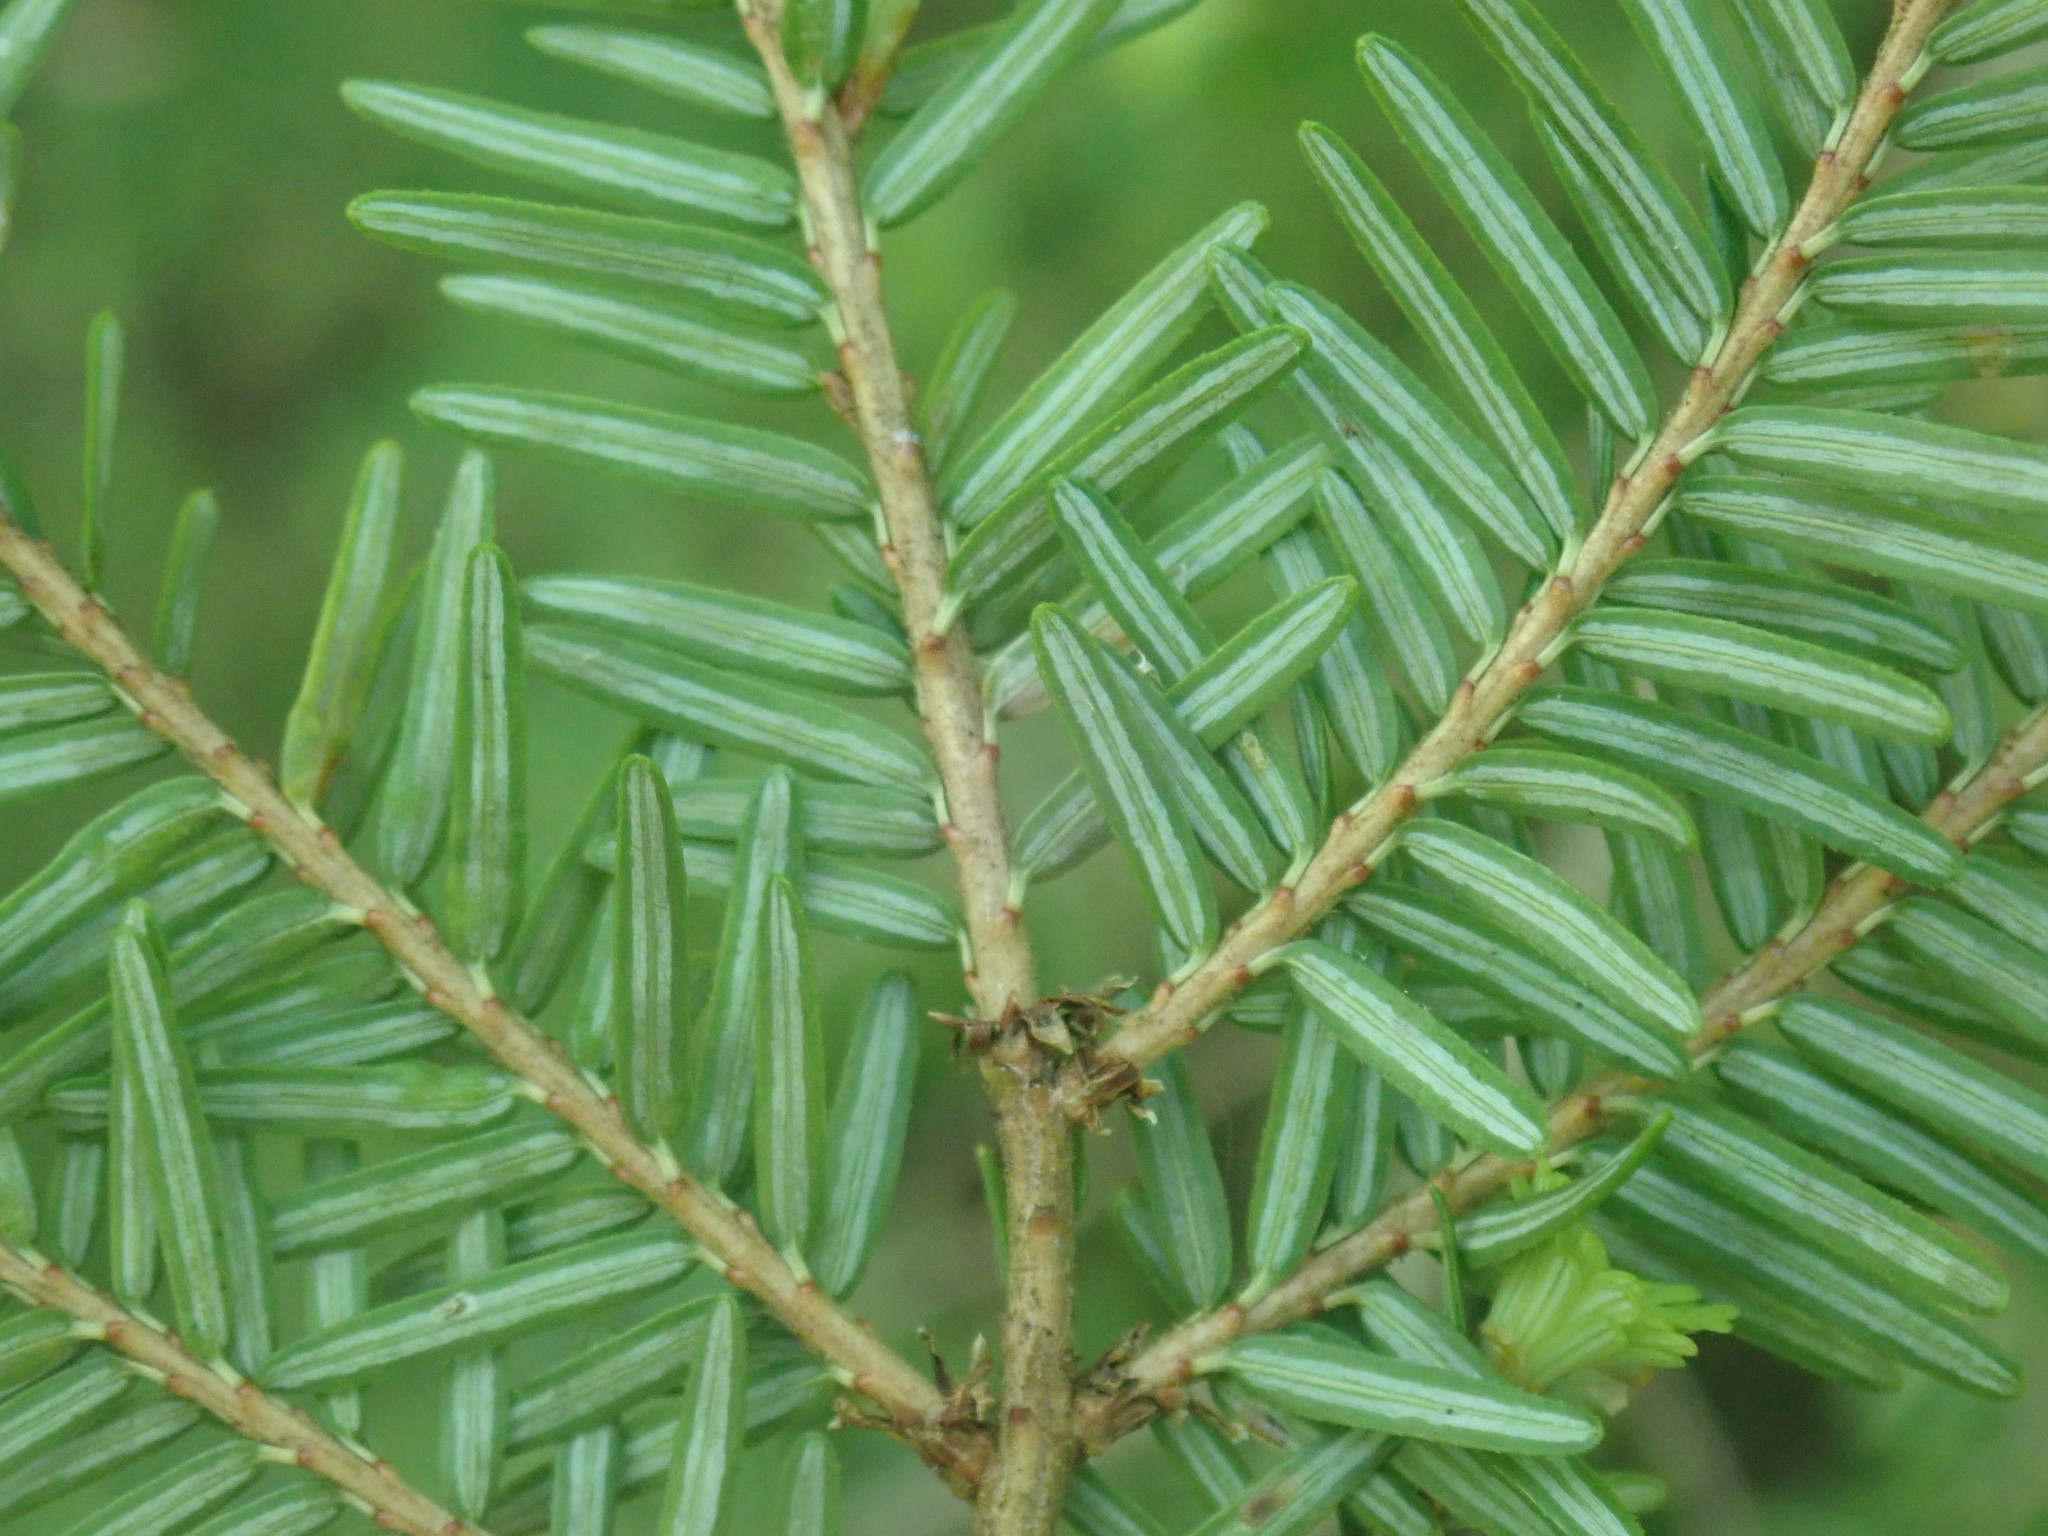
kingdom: Plantae
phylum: Tracheophyta
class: Pinopsida
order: Pinales
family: Pinaceae
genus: Tsuga
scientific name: Tsuga canadensis
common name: Eastern hemlock
